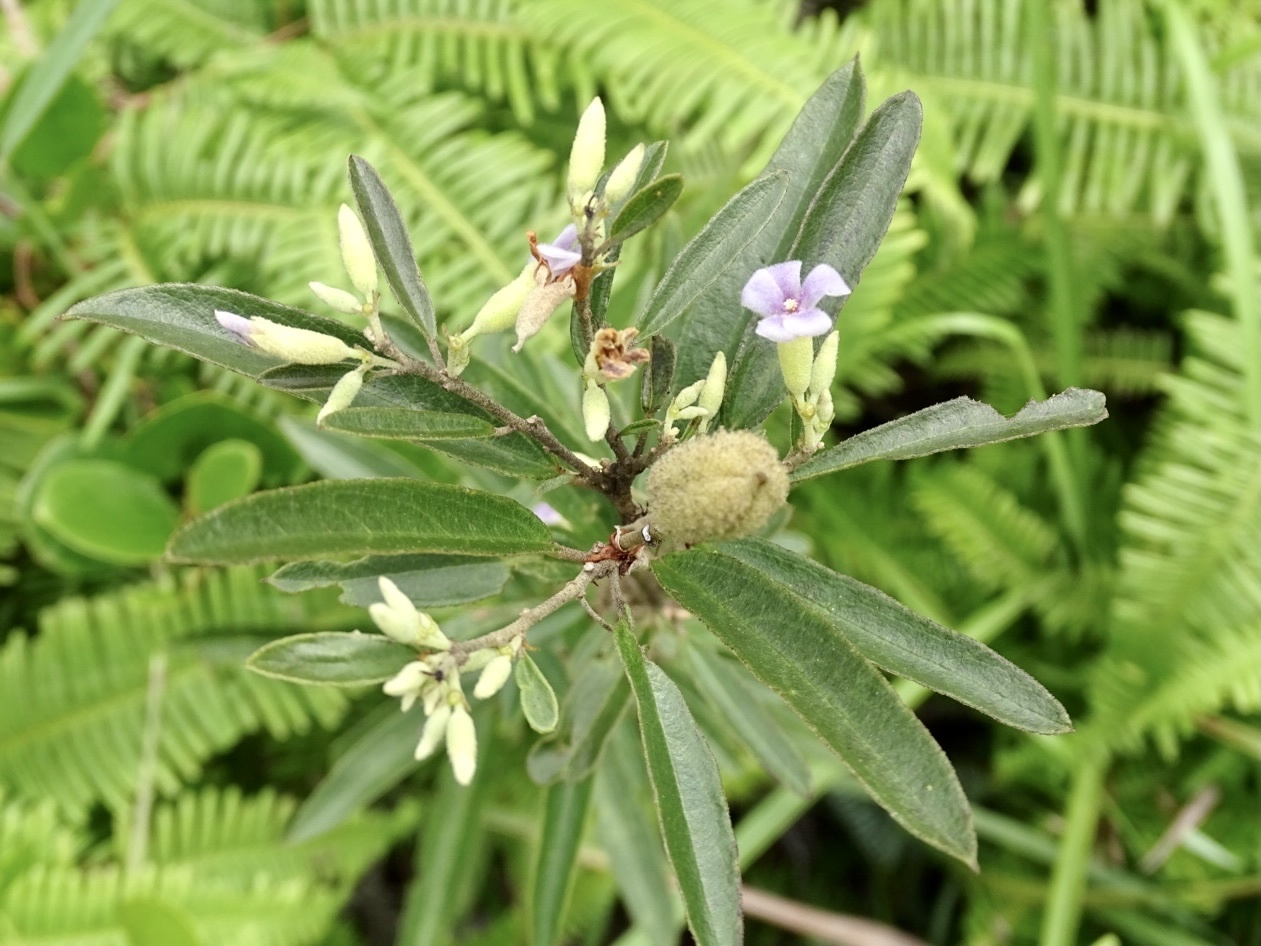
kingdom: Plantae
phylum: Tracheophyta
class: Magnoliopsida
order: Malvales
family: Malvaceae
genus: Helicteres
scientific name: Helicteres angustifolia
